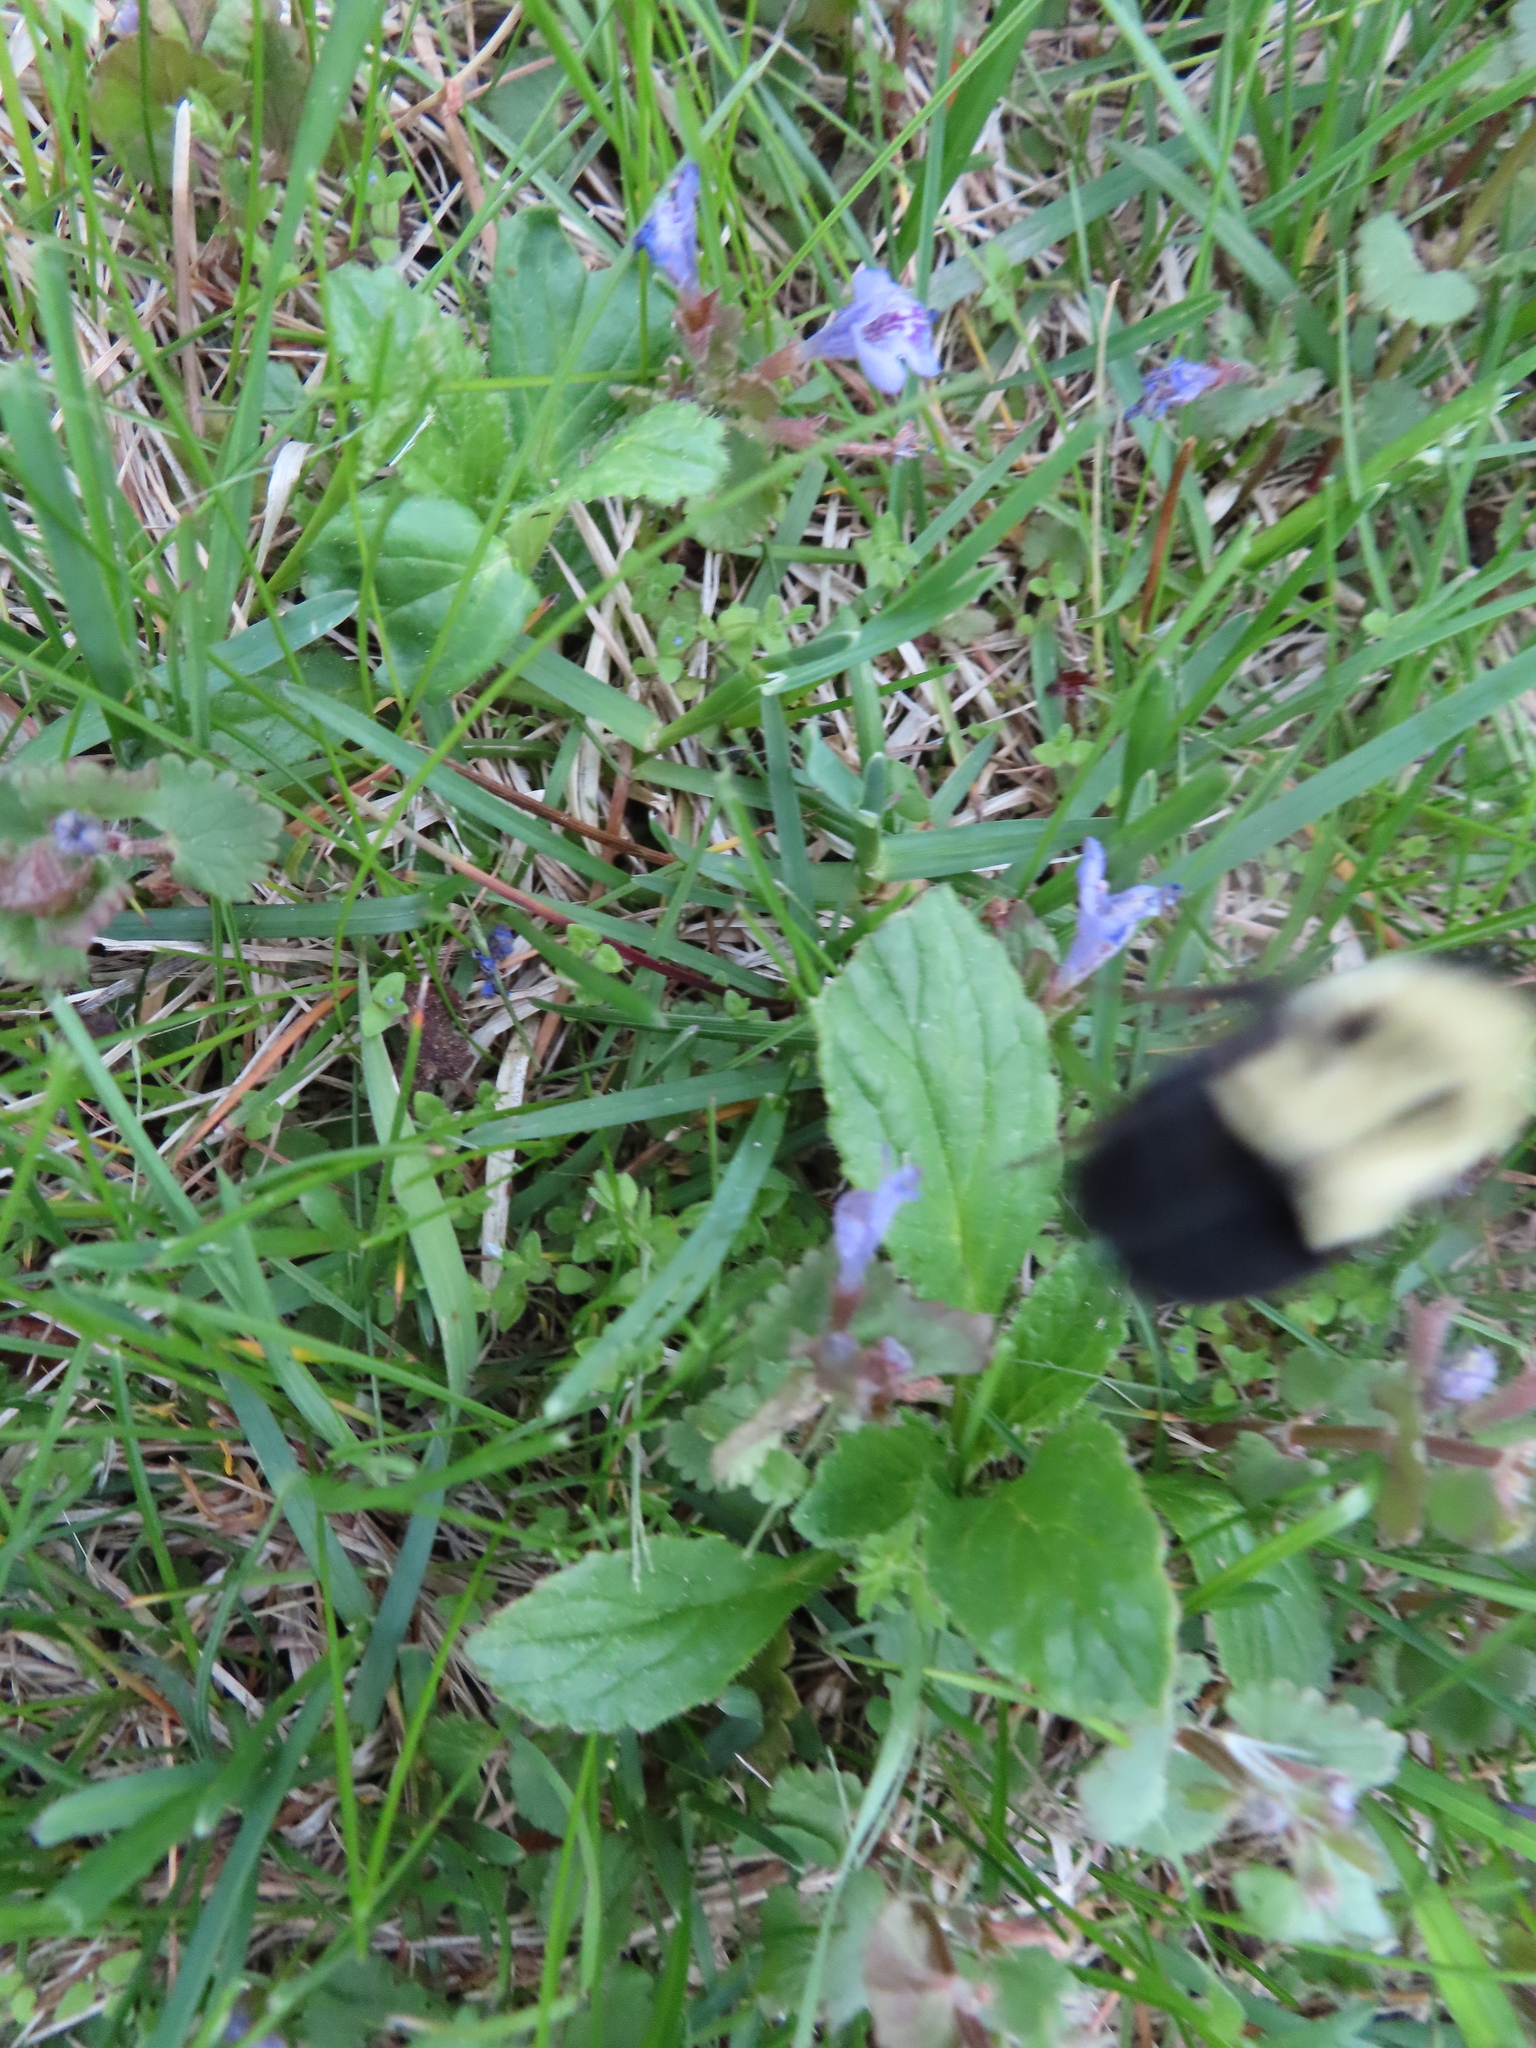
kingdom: Animalia
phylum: Arthropoda
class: Insecta
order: Hymenoptera
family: Apidae
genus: Bombus
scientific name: Bombus impatiens
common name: Common eastern bumble bee
